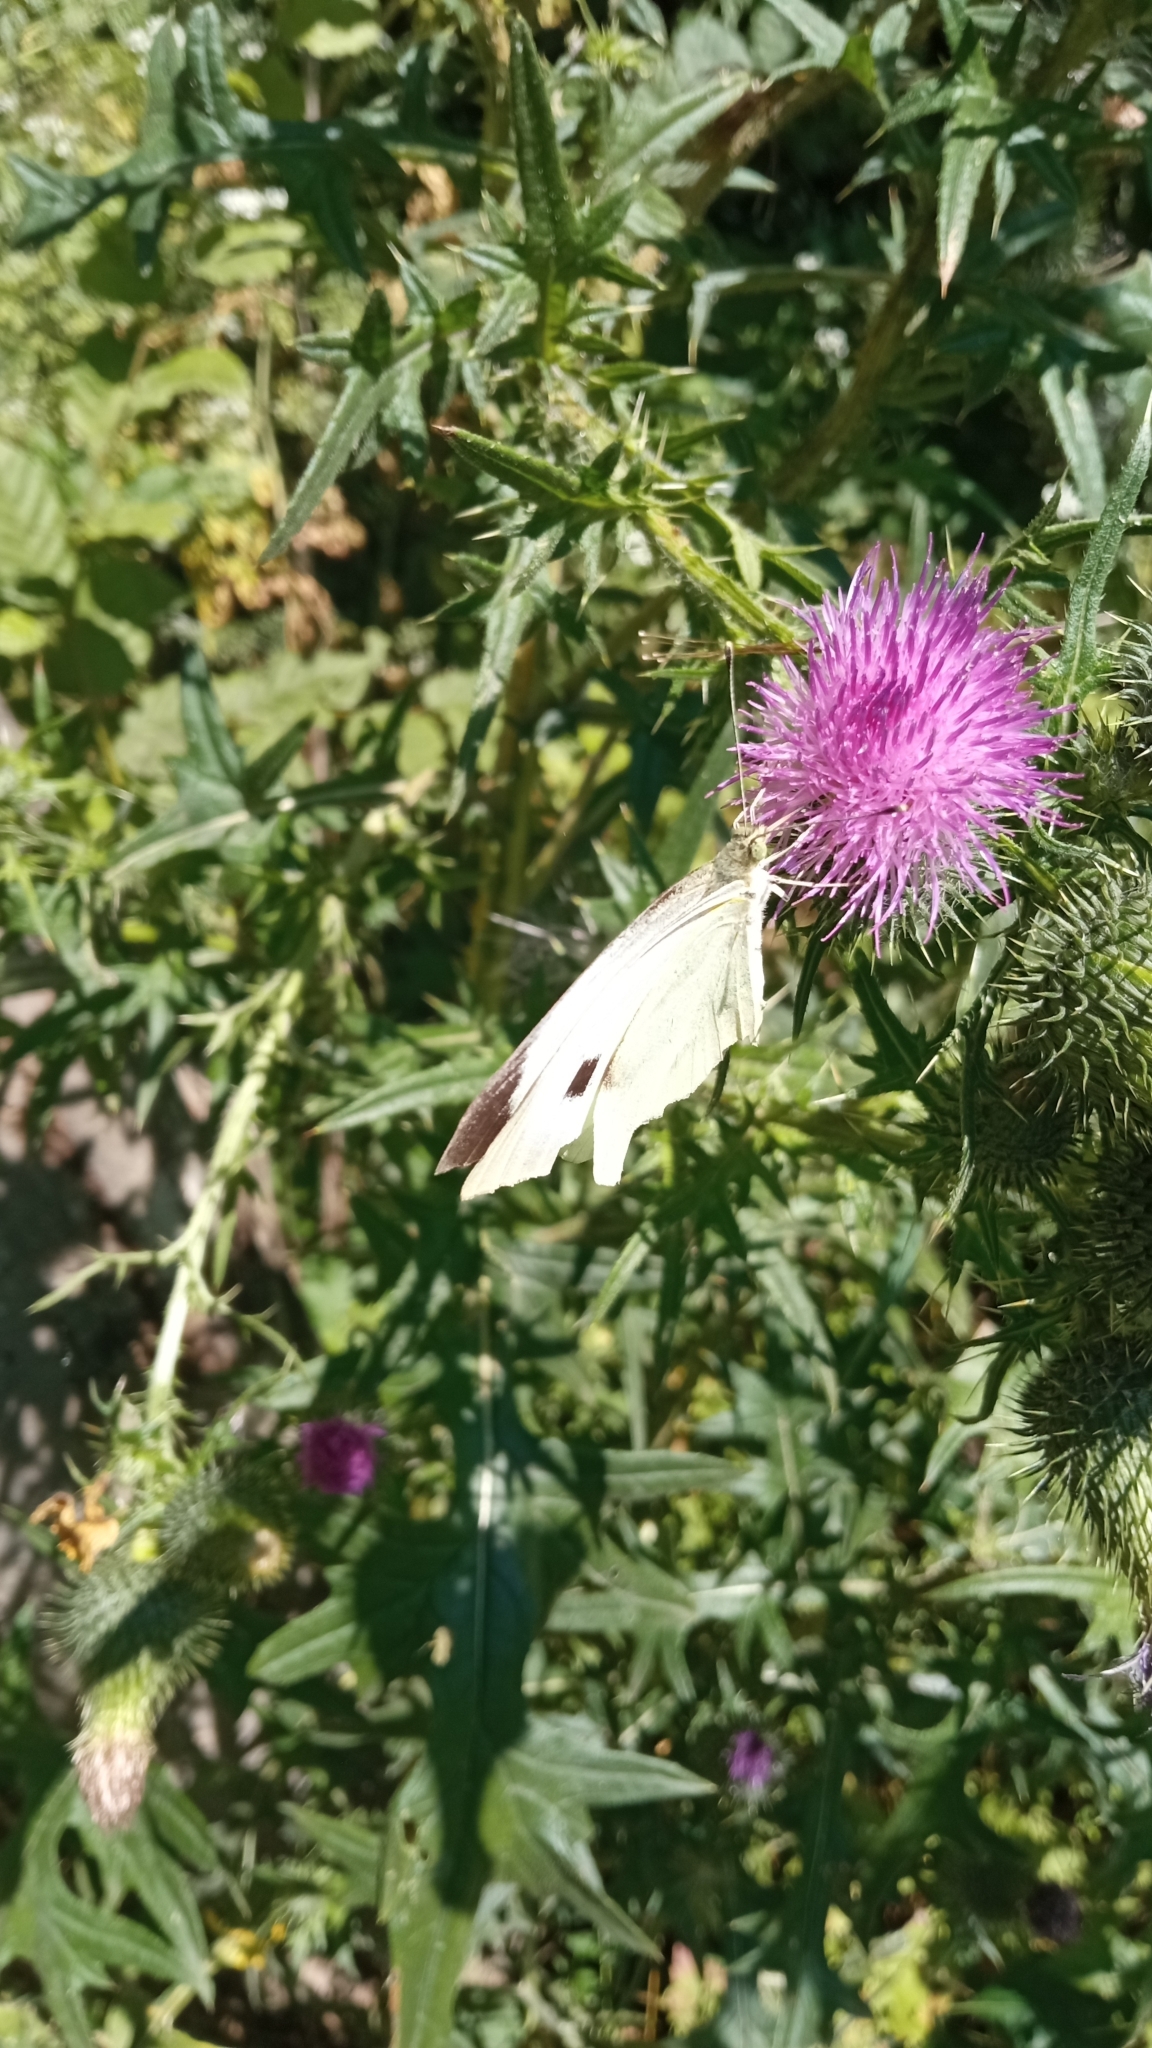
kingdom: Animalia
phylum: Arthropoda
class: Insecta
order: Lepidoptera
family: Pieridae
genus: Pieris
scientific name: Pieris brassicae
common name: Large white
